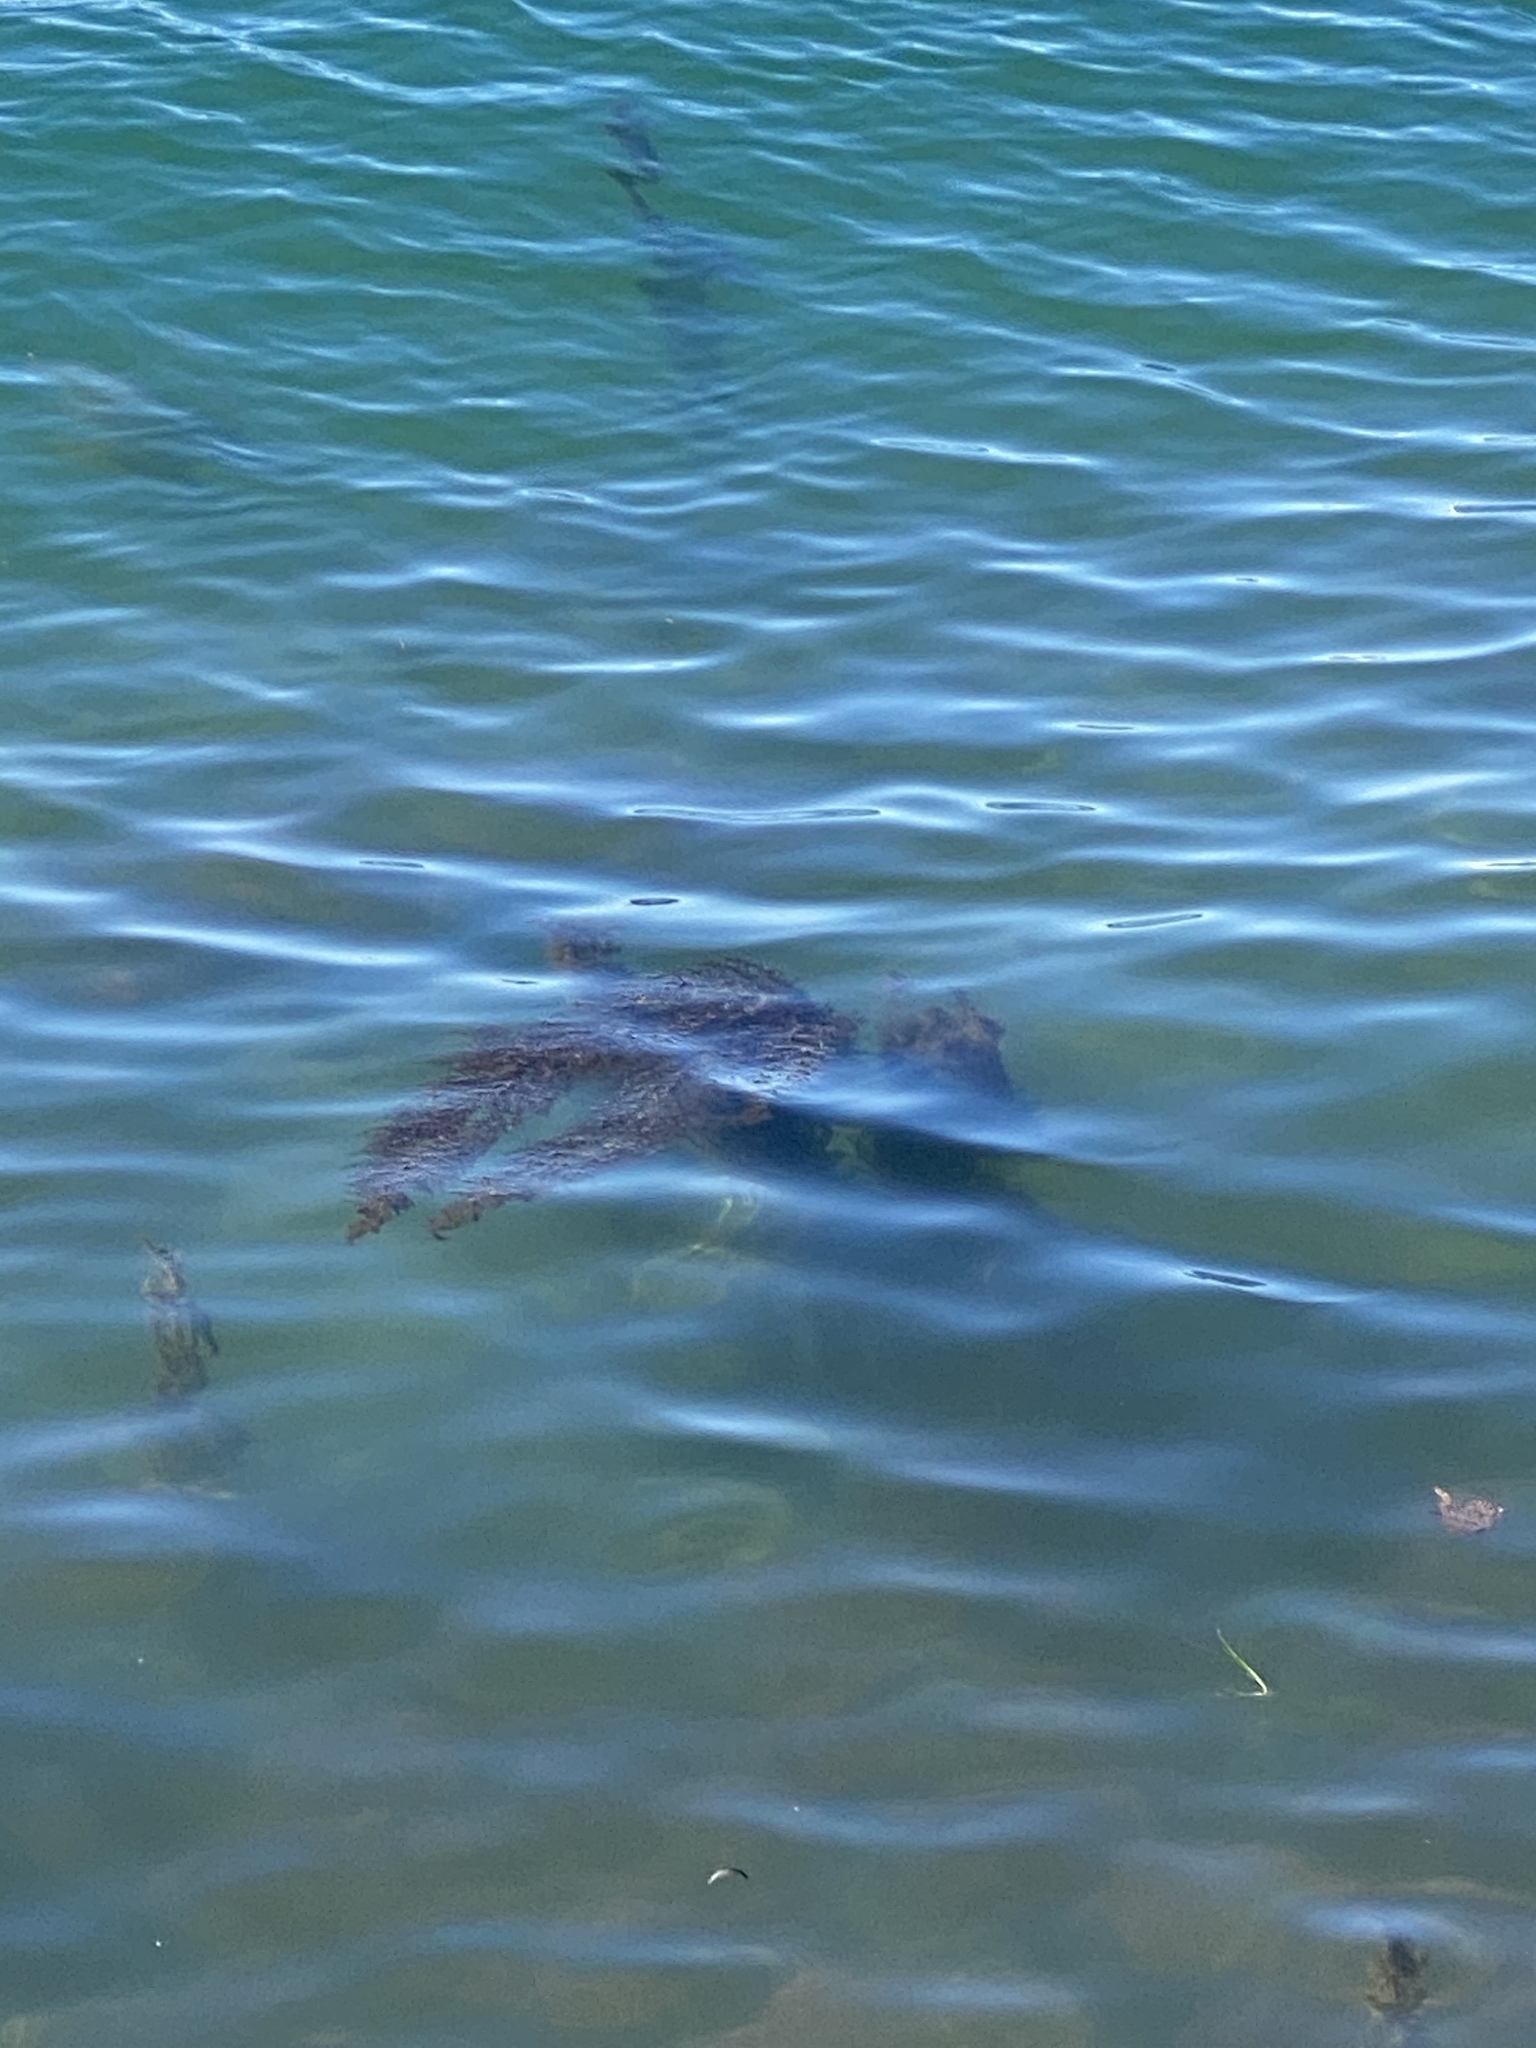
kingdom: Chromista
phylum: Ochrophyta
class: Phaeophyceae
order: Fucales
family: Sargassaceae
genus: Sargassum
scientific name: Sargassum muticum
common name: Japweed
